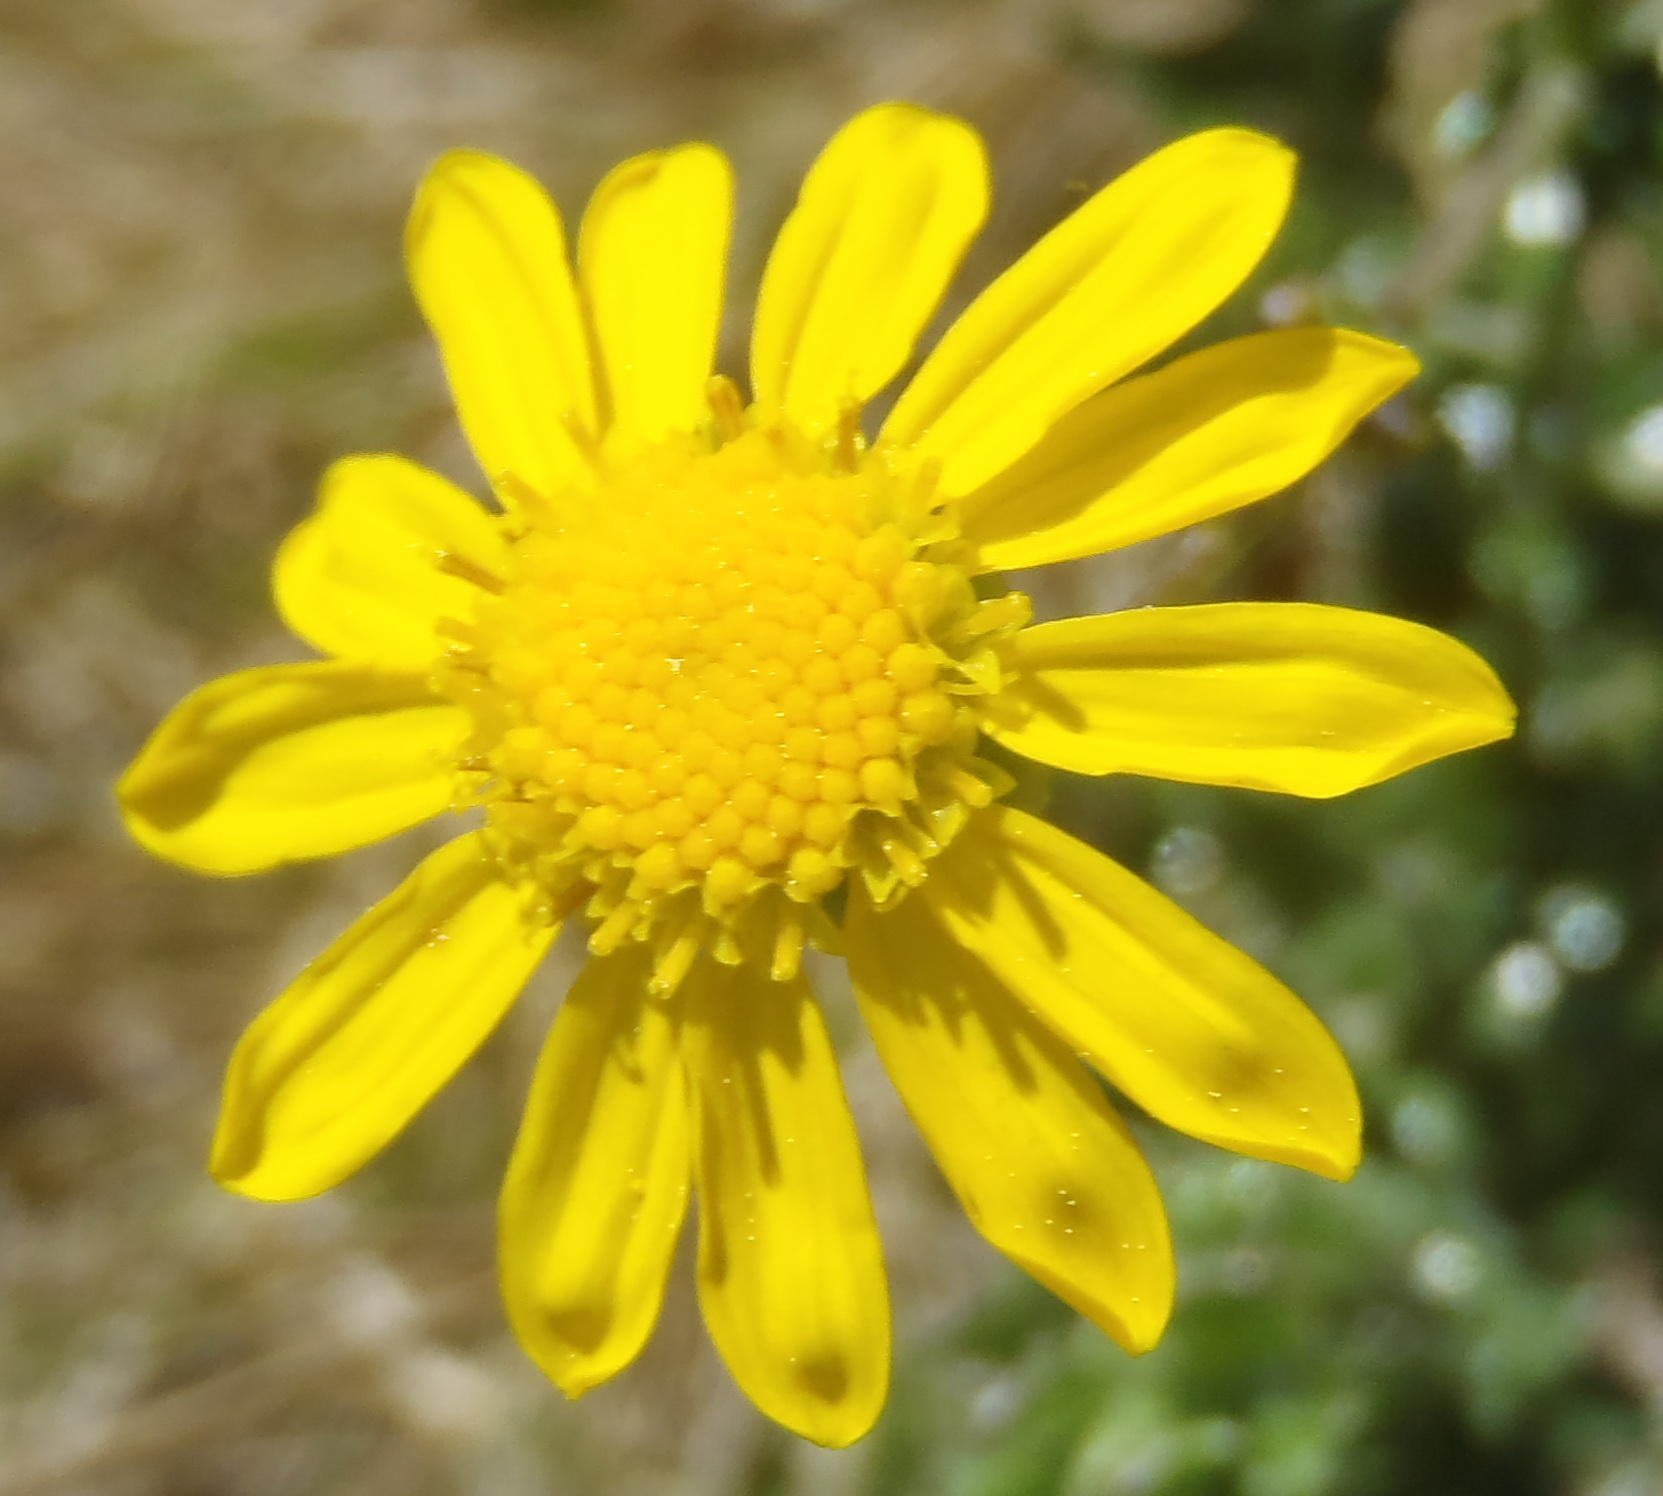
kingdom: Plantae
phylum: Tracheophyta
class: Magnoliopsida
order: Asterales
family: Asteraceae
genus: Senecio
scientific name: Senecio ilicifolius
